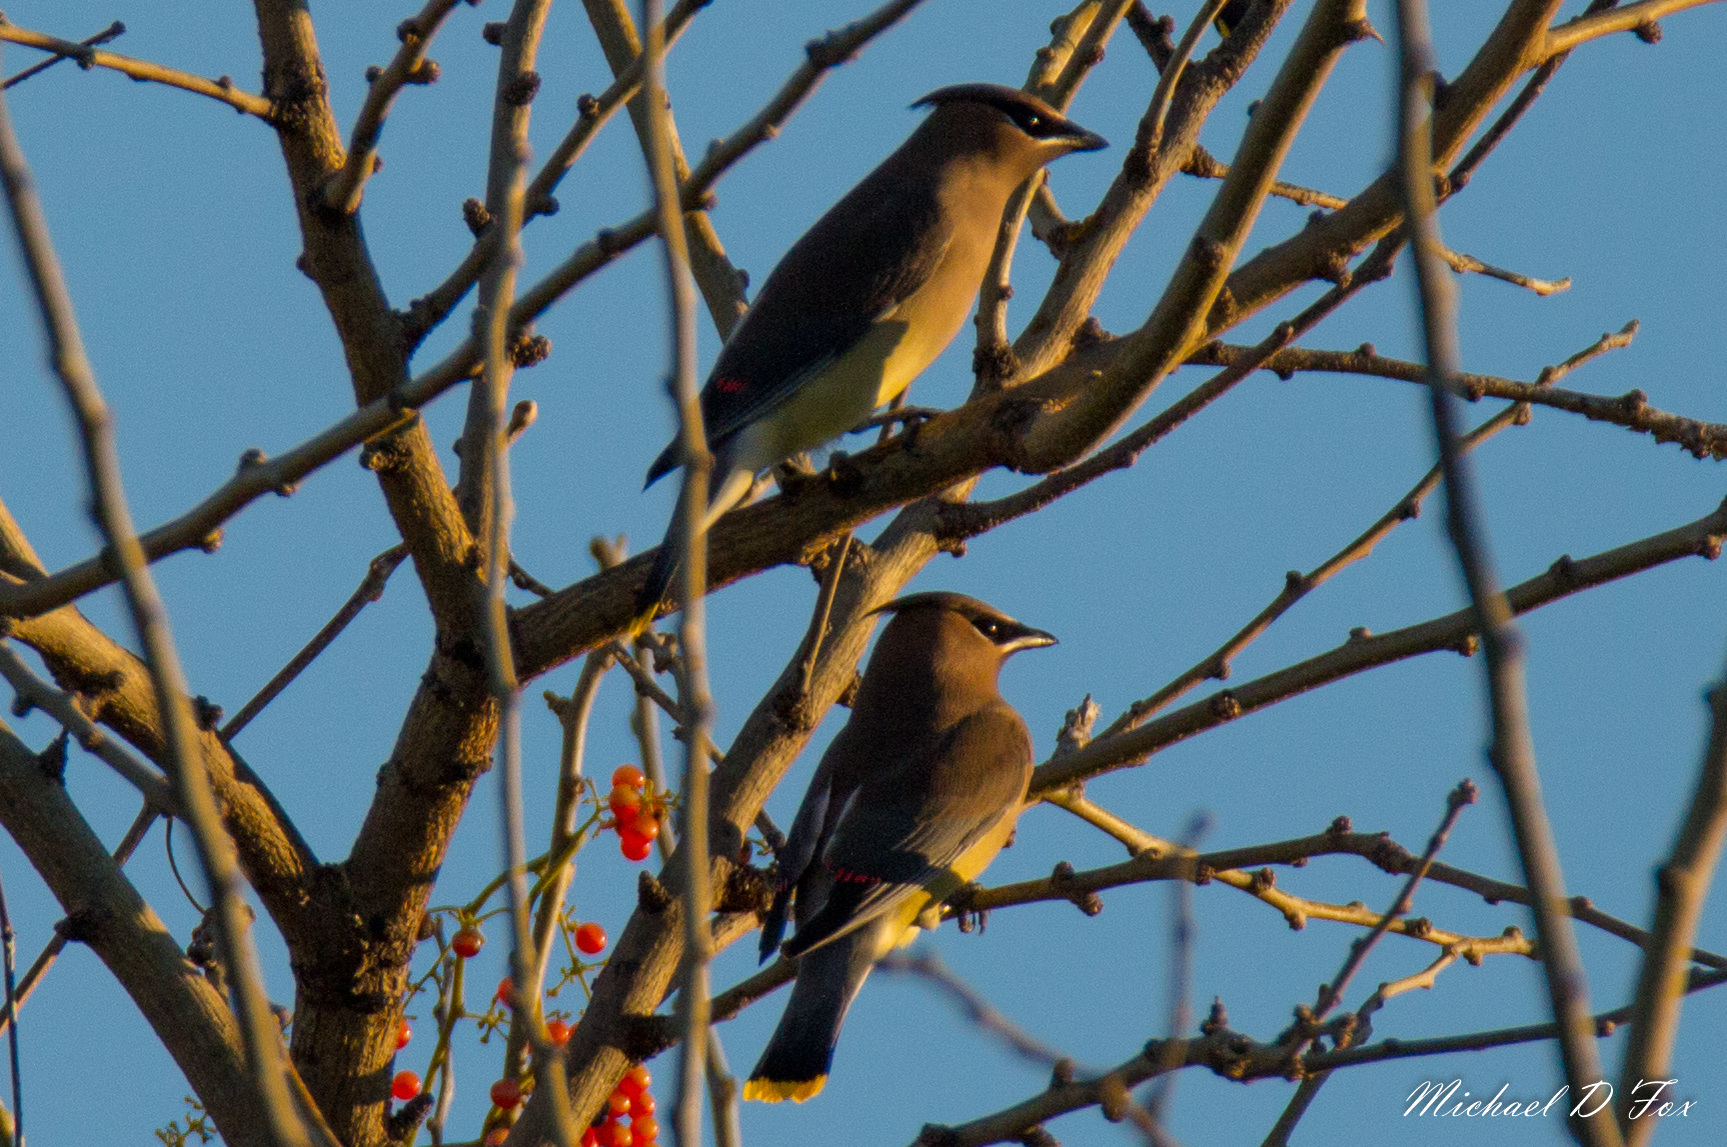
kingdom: Animalia
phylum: Chordata
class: Aves
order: Passeriformes
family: Bombycillidae
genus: Bombycilla
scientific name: Bombycilla cedrorum
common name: Cedar waxwing
